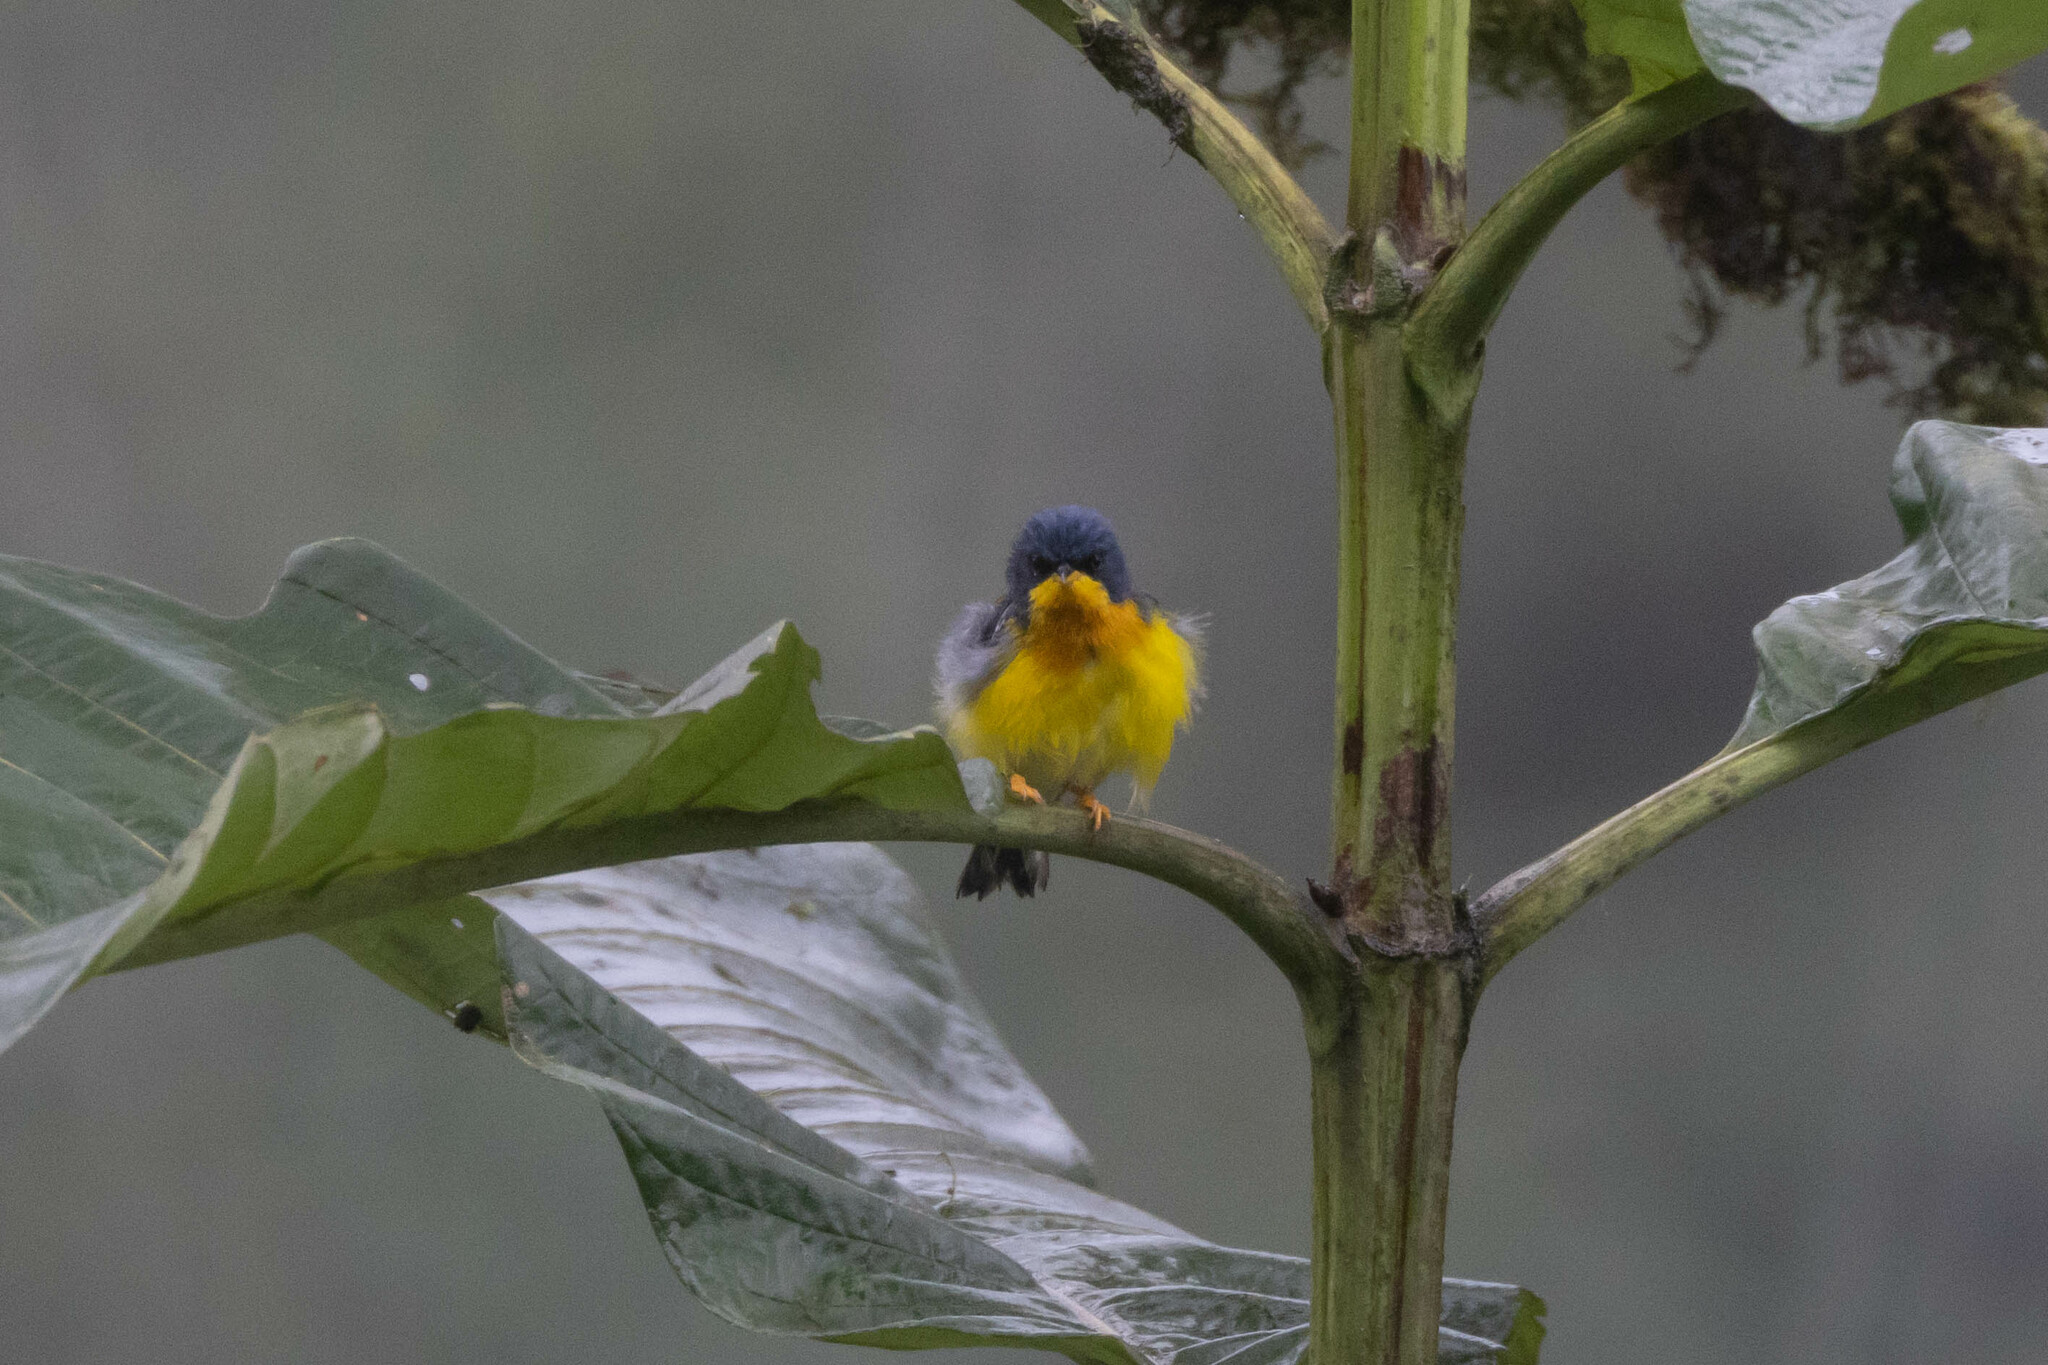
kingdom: Animalia
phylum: Chordata
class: Aves
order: Passeriformes
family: Parulidae
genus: Setophaga
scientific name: Setophaga pitiayumi
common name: Tropical parula
